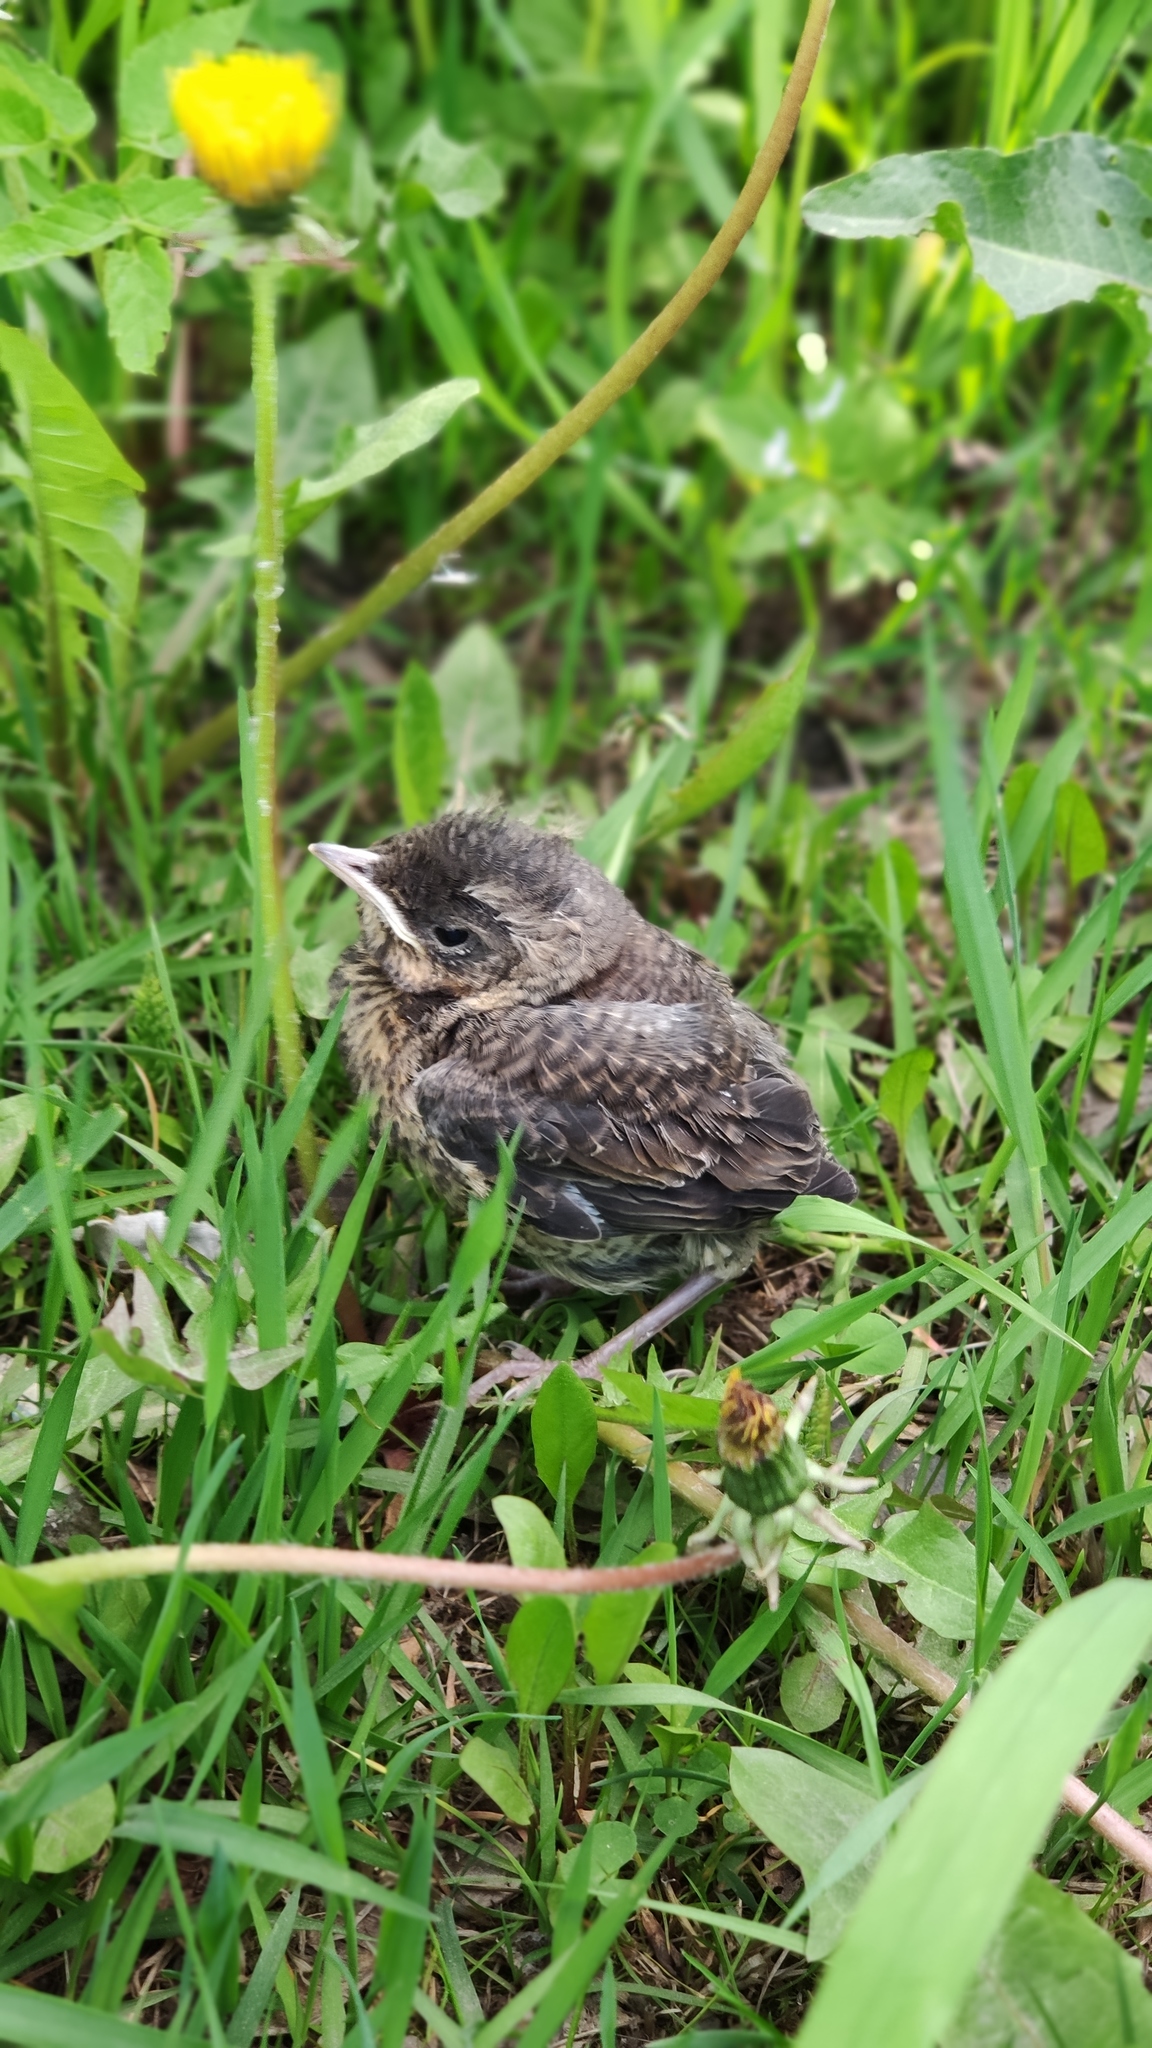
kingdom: Animalia
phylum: Chordata
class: Aves
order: Passeriformes
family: Turdidae
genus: Turdus
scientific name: Turdus pilaris
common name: Fieldfare
